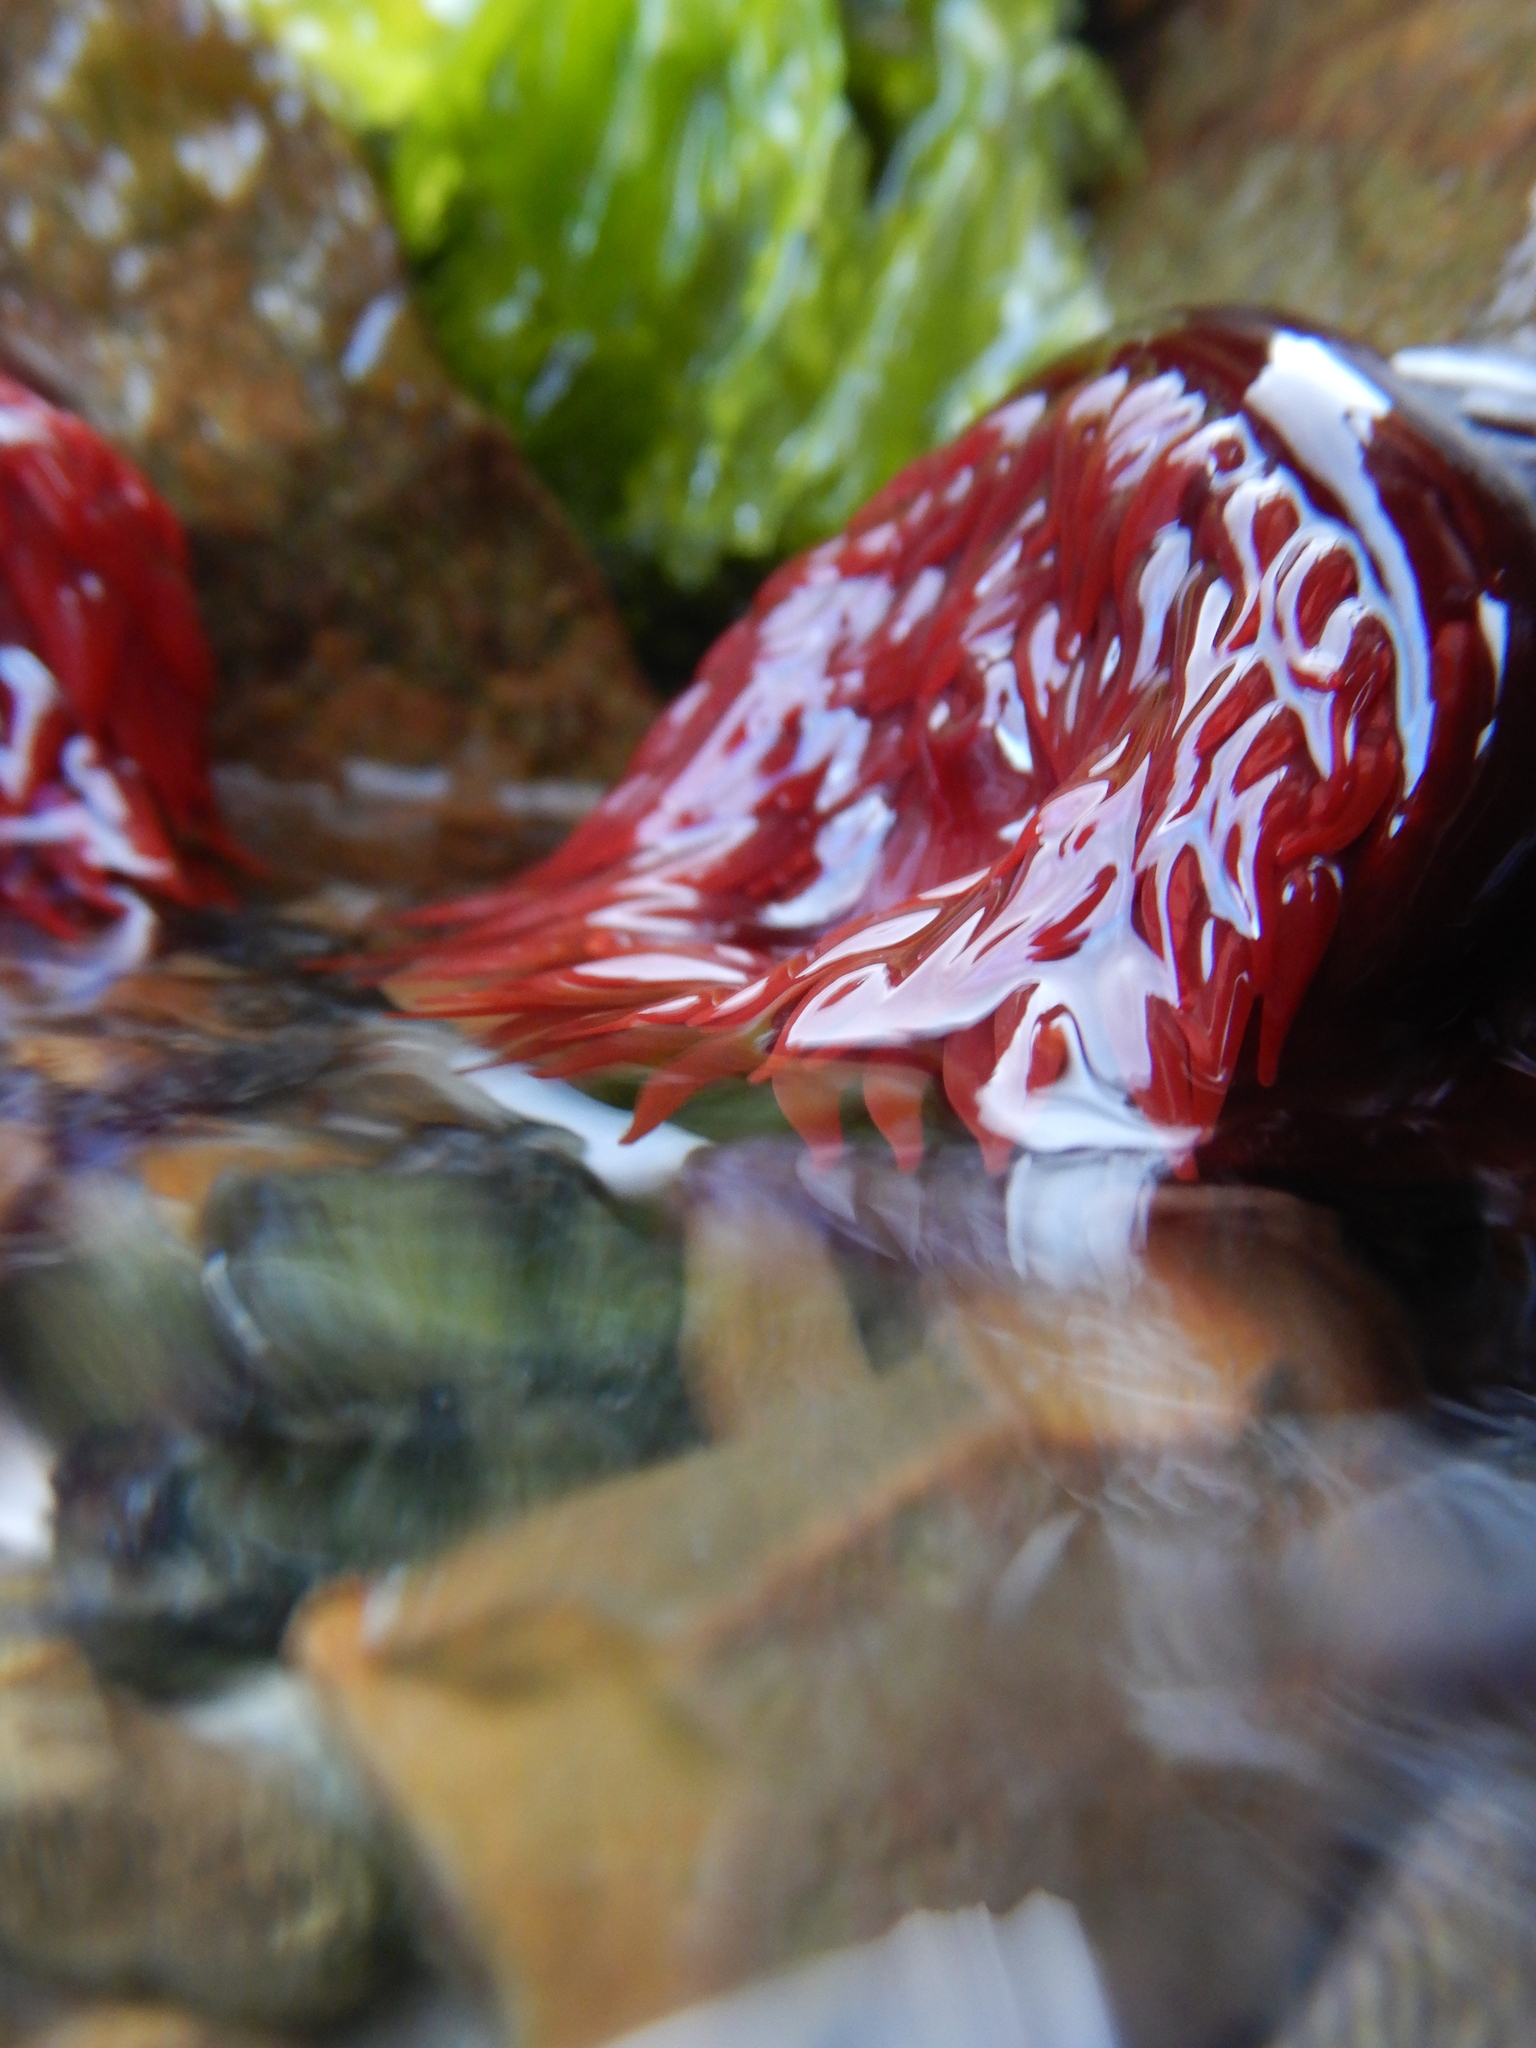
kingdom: Animalia
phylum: Cnidaria
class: Anthozoa
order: Actiniaria
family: Actiniidae
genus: Actinia
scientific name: Actinia tenebrosa
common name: Waratah anemone
